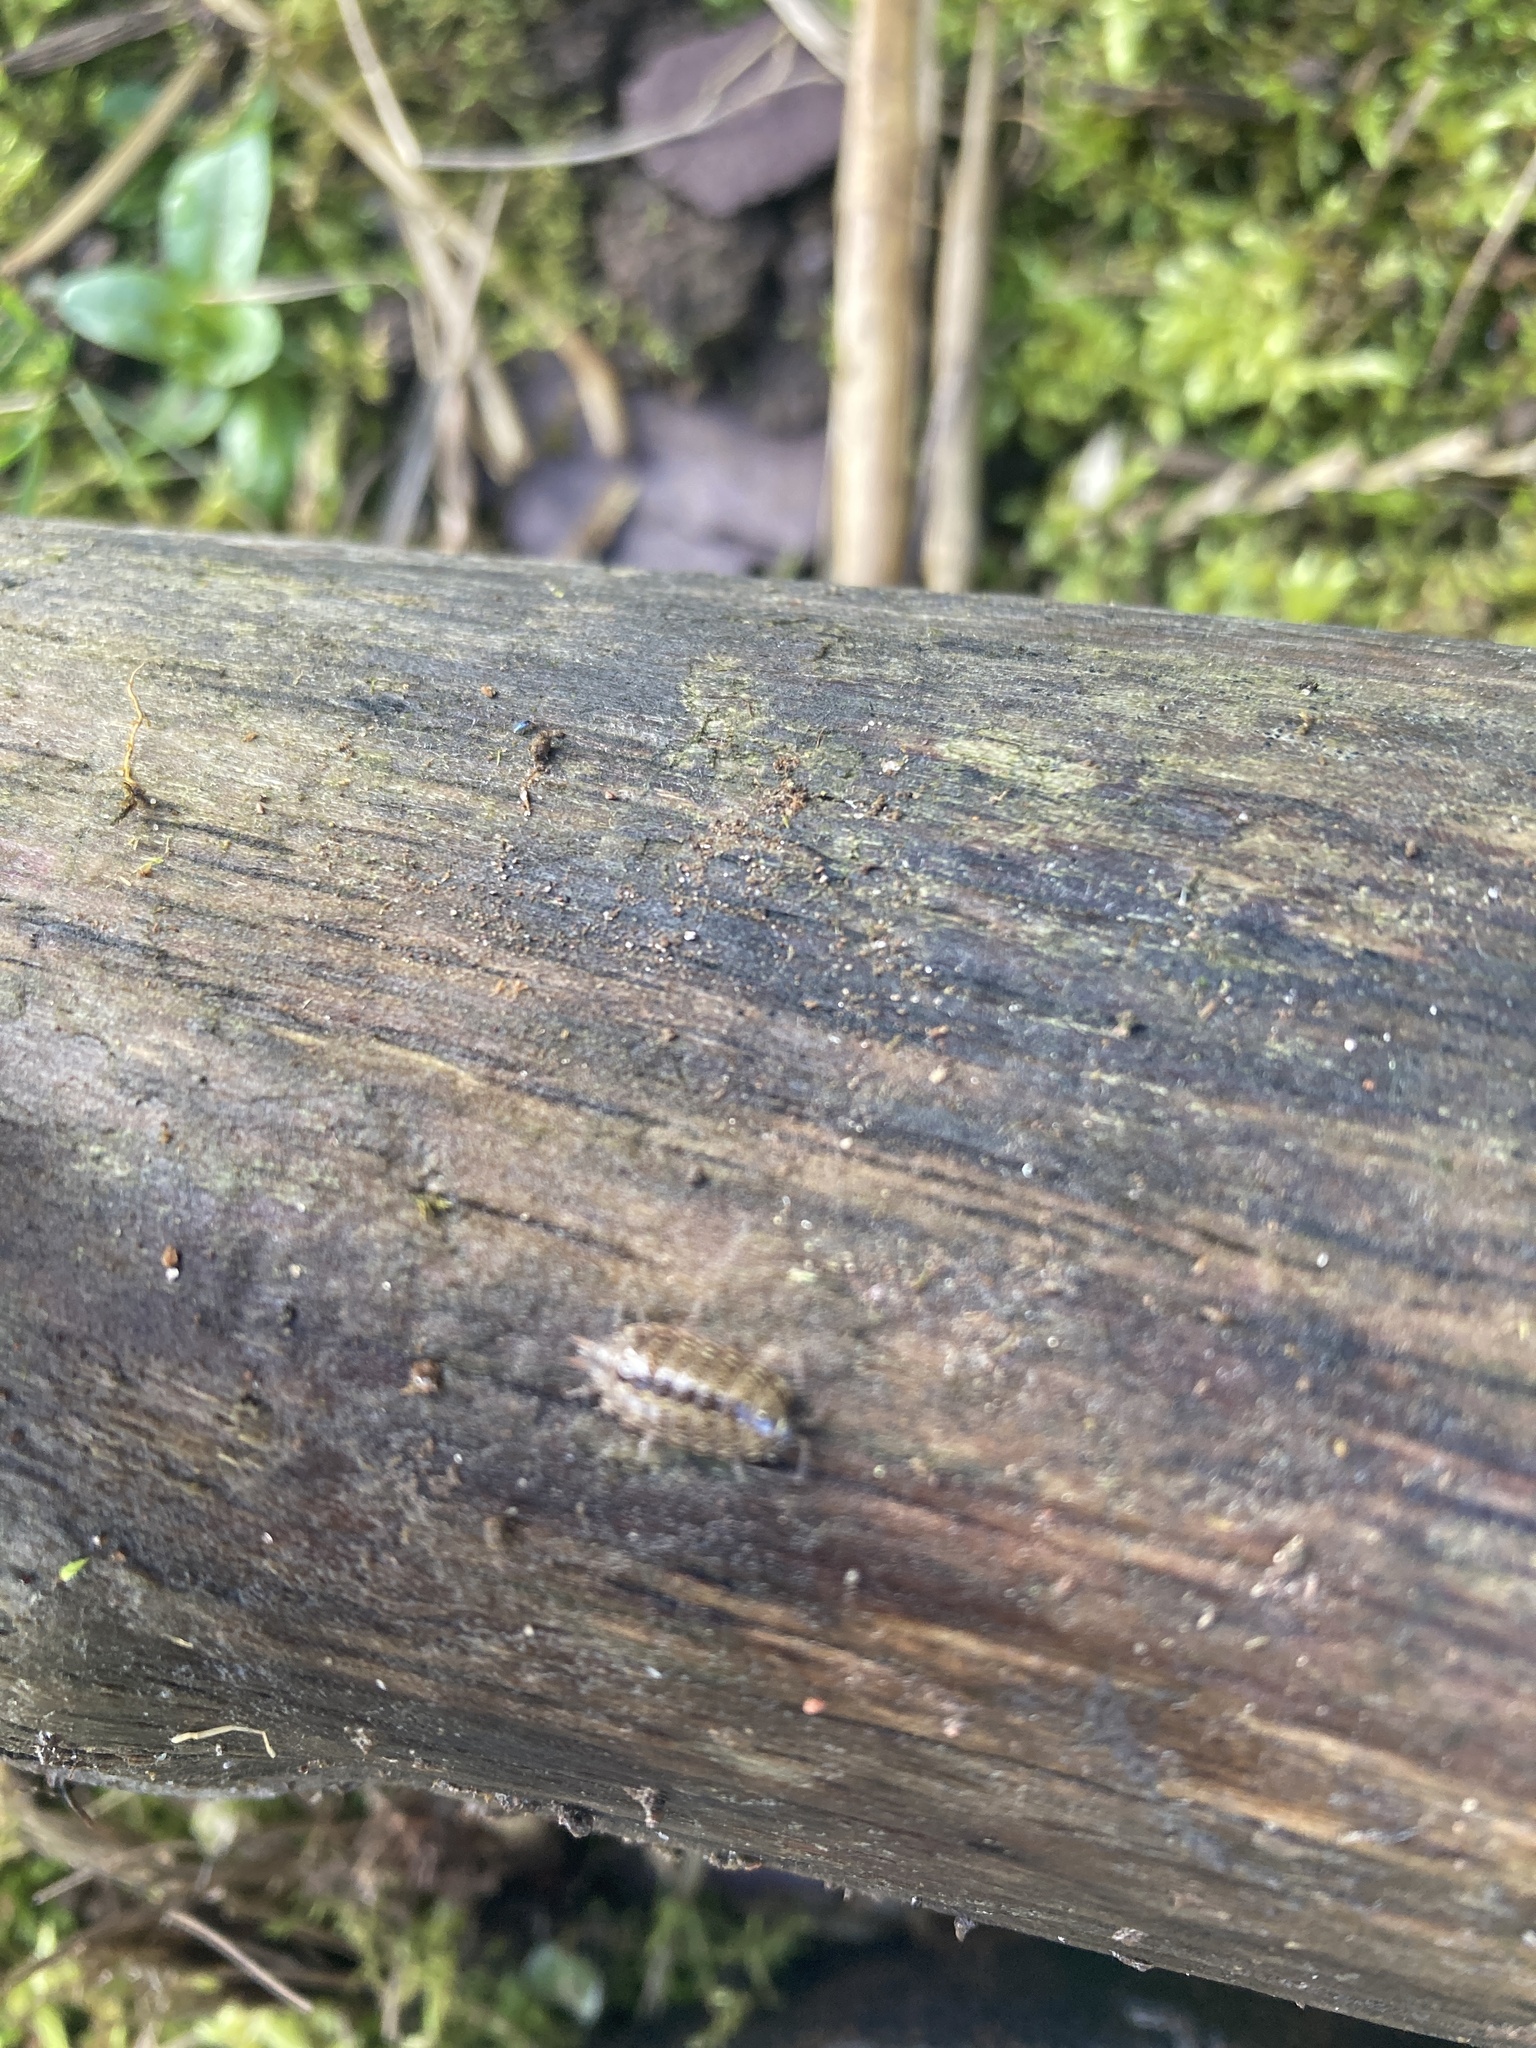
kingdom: Animalia
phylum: Arthropoda
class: Malacostraca
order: Isopoda
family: Philosciidae
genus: Philoscia
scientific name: Philoscia muscorum
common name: Common striped woodlouse
